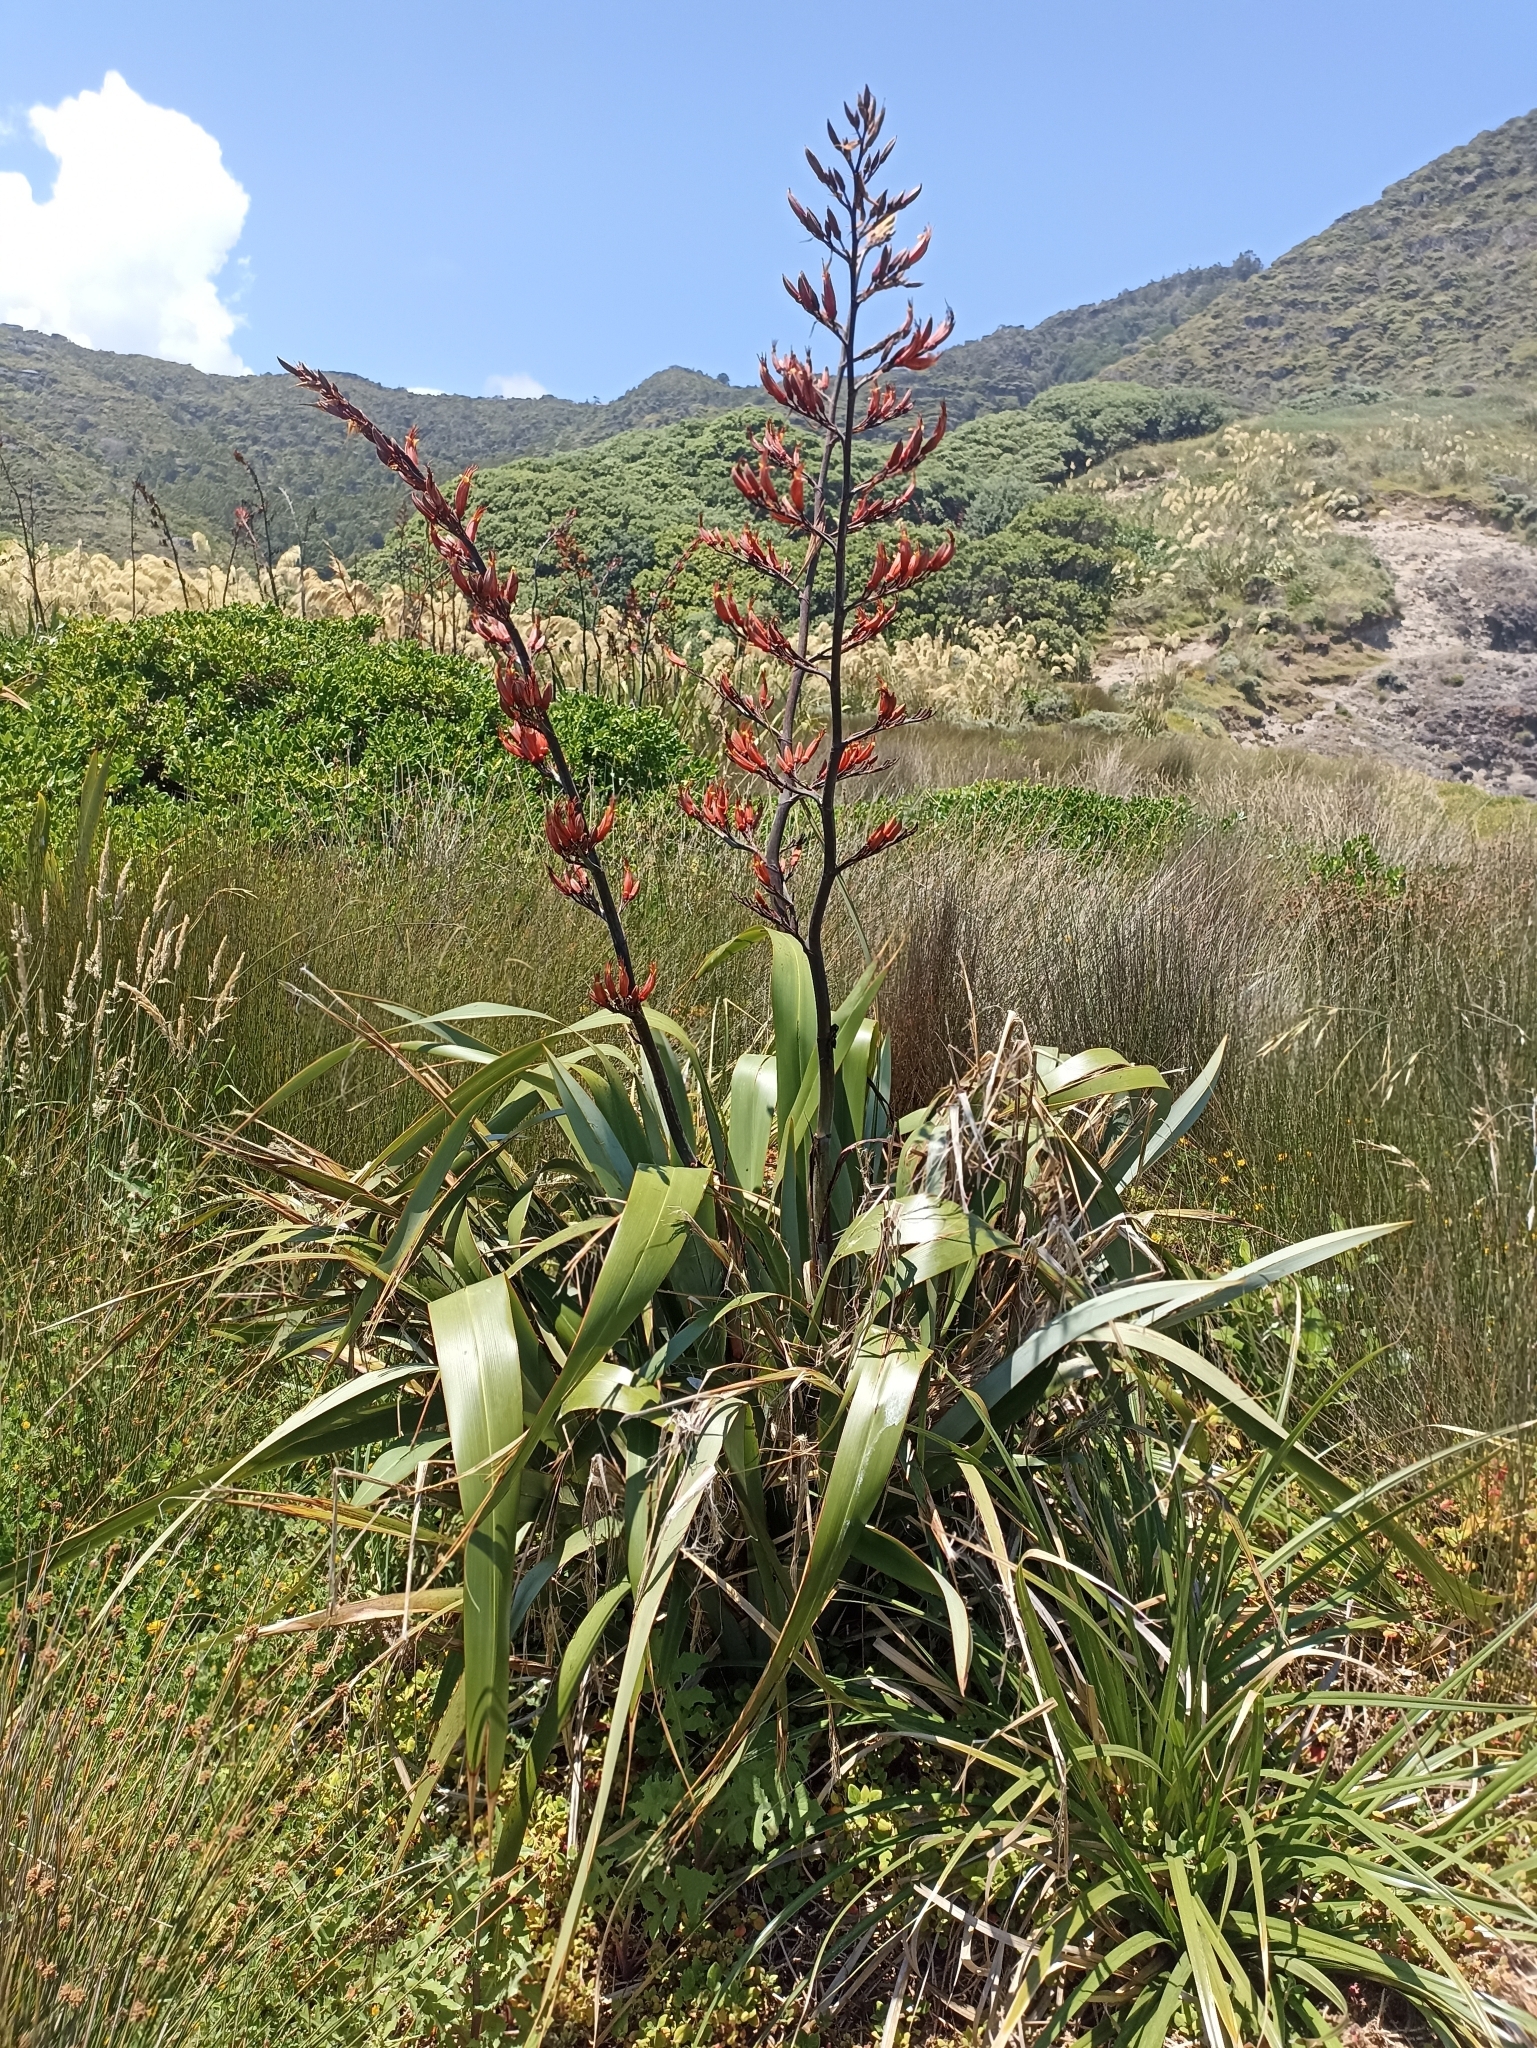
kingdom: Plantae
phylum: Tracheophyta
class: Liliopsida
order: Asparagales
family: Asphodelaceae
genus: Phormium
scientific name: Phormium tenax
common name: New zealand flax
